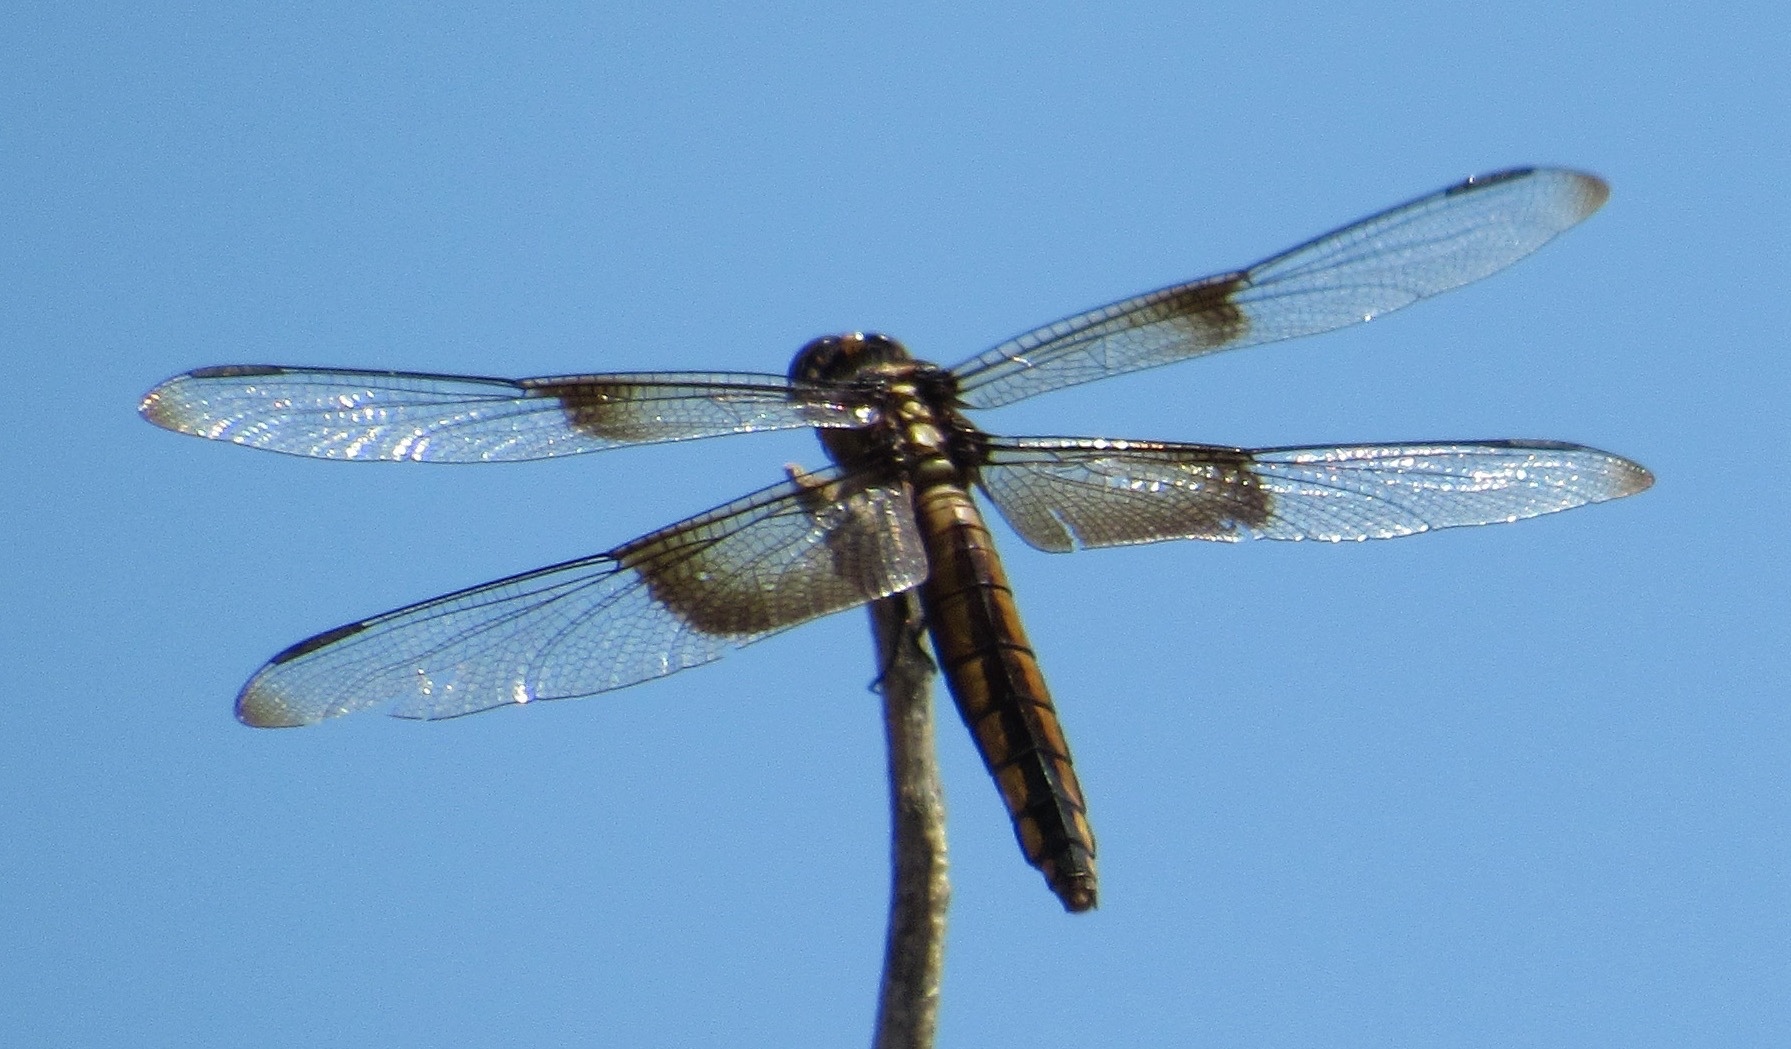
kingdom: Animalia
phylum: Arthropoda
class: Insecta
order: Odonata
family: Libellulidae
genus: Libellula
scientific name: Libellula luctuosa
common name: Widow skimmer
